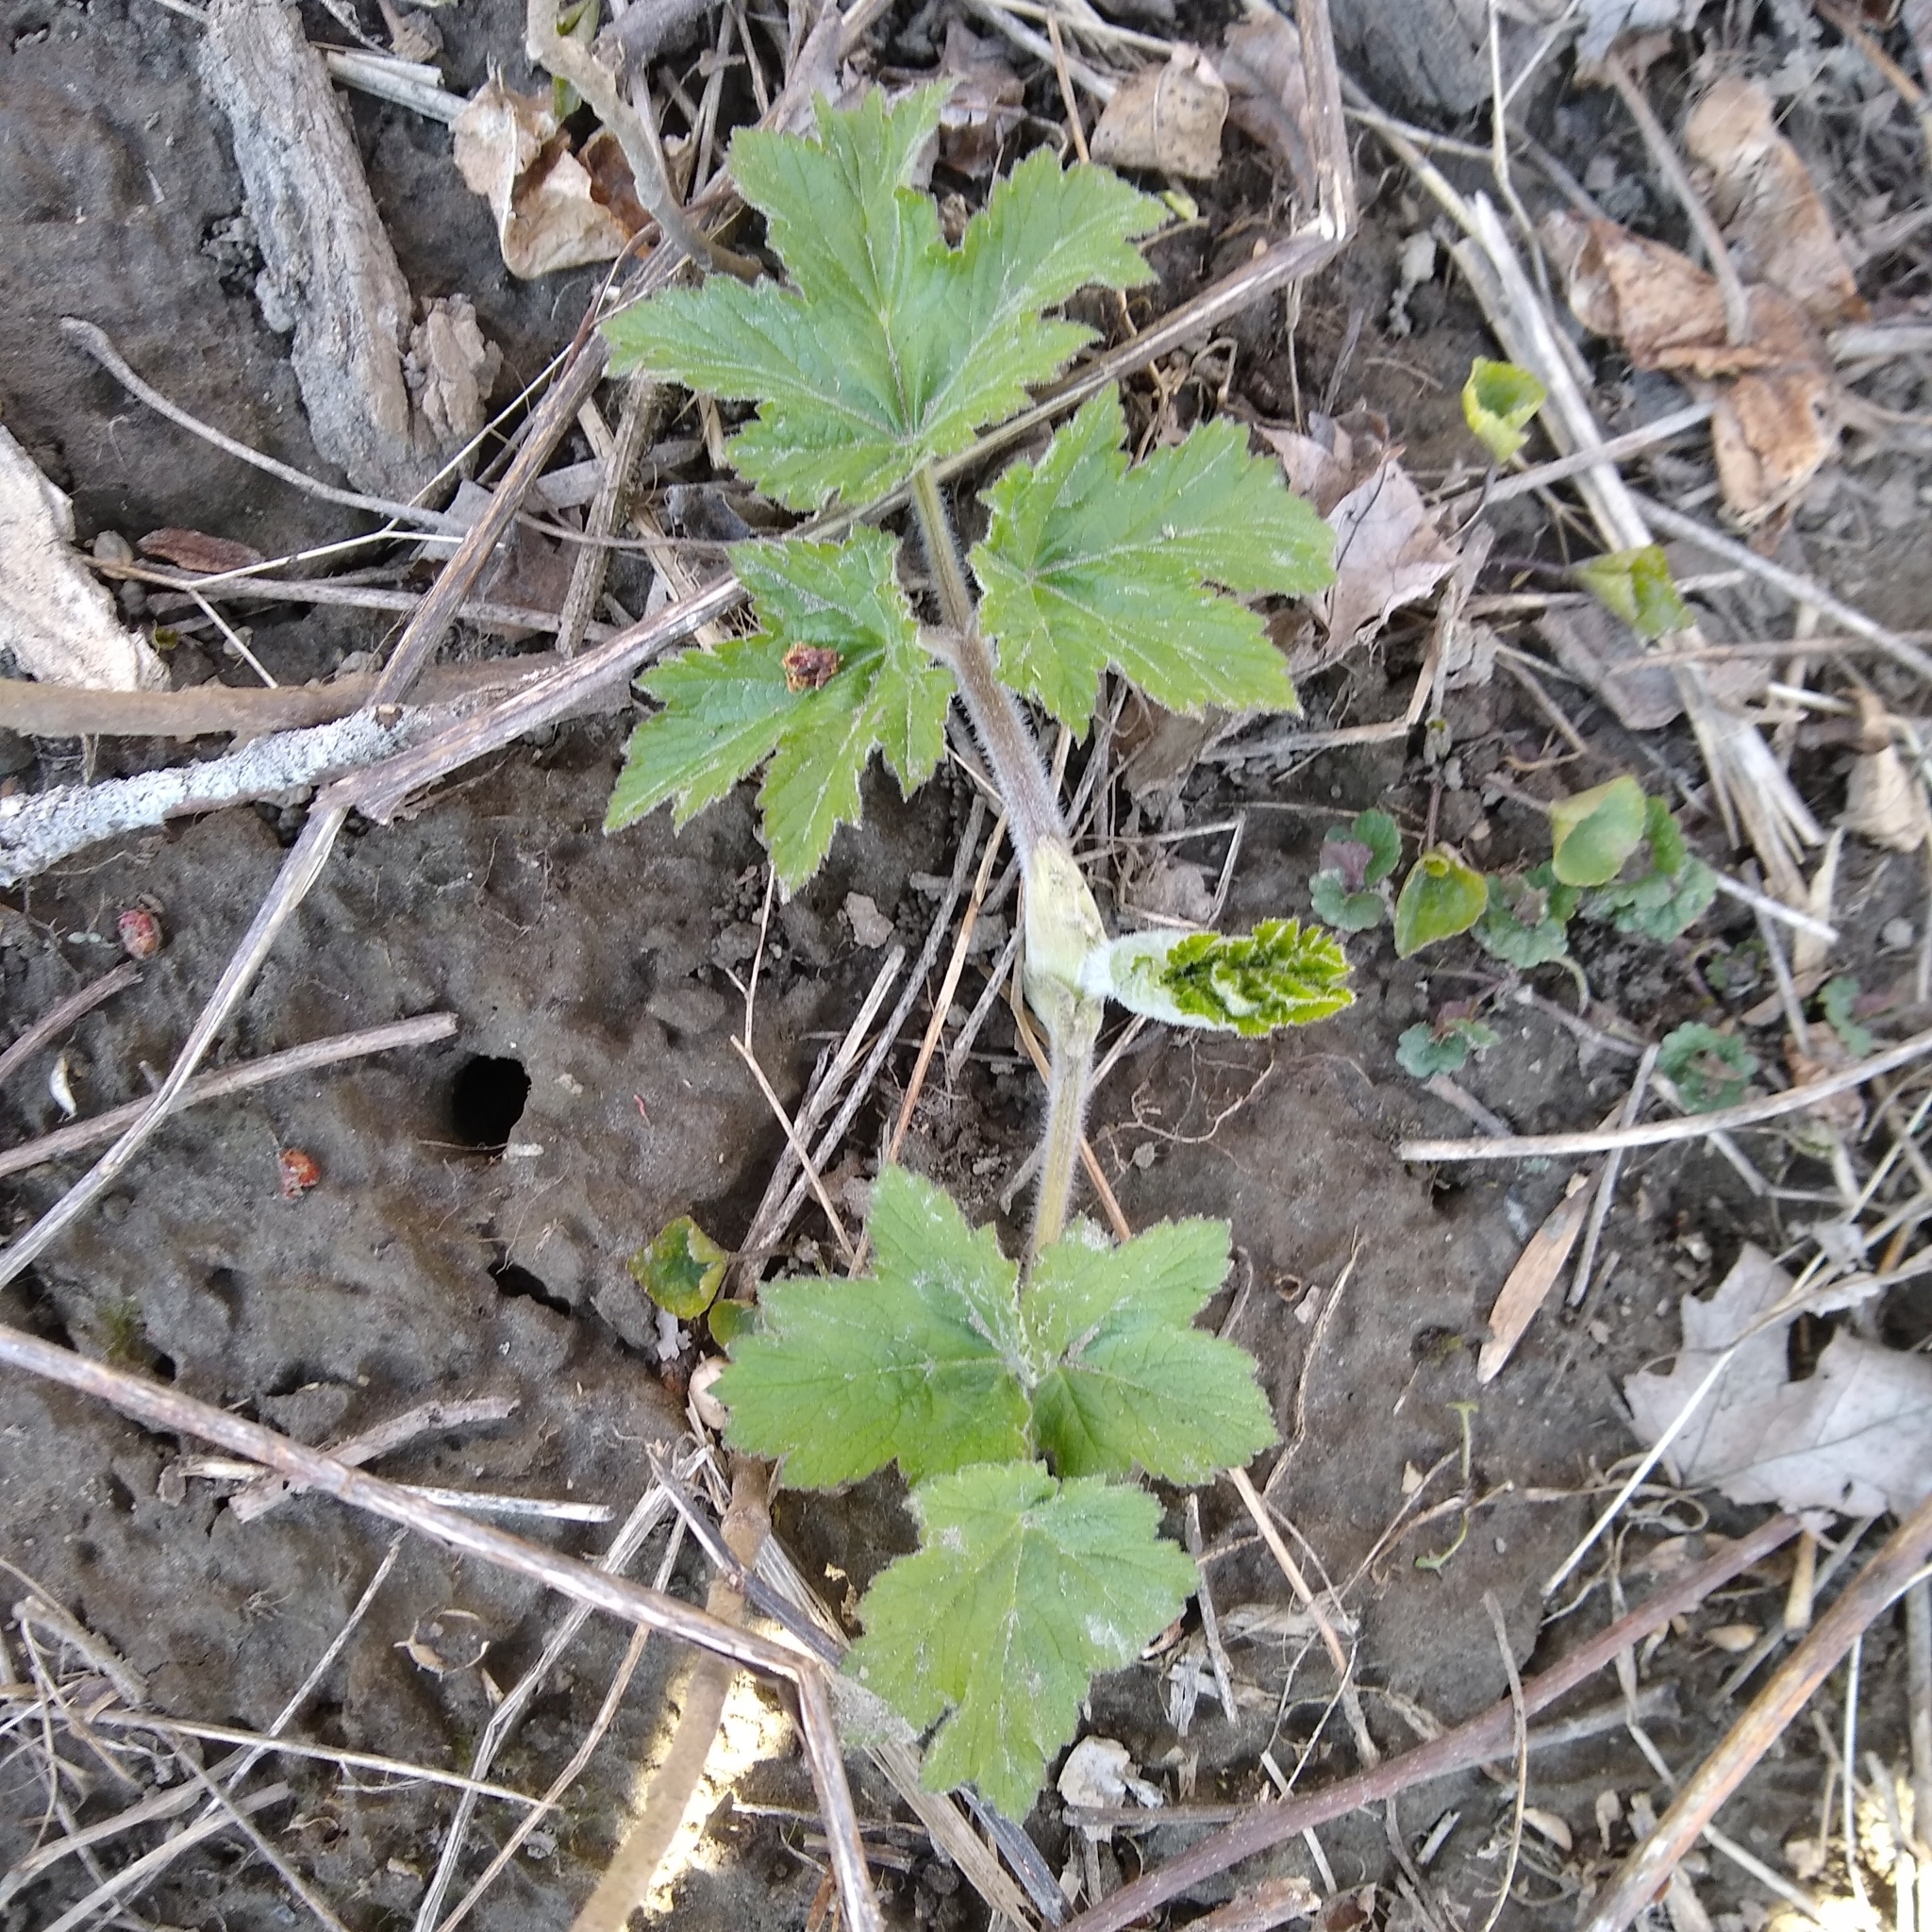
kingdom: Plantae
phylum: Tracheophyta
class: Magnoliopsida
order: Apiales
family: Apiaceae
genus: Heracleum
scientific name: Heracleum maximum
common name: American cow parsnip
